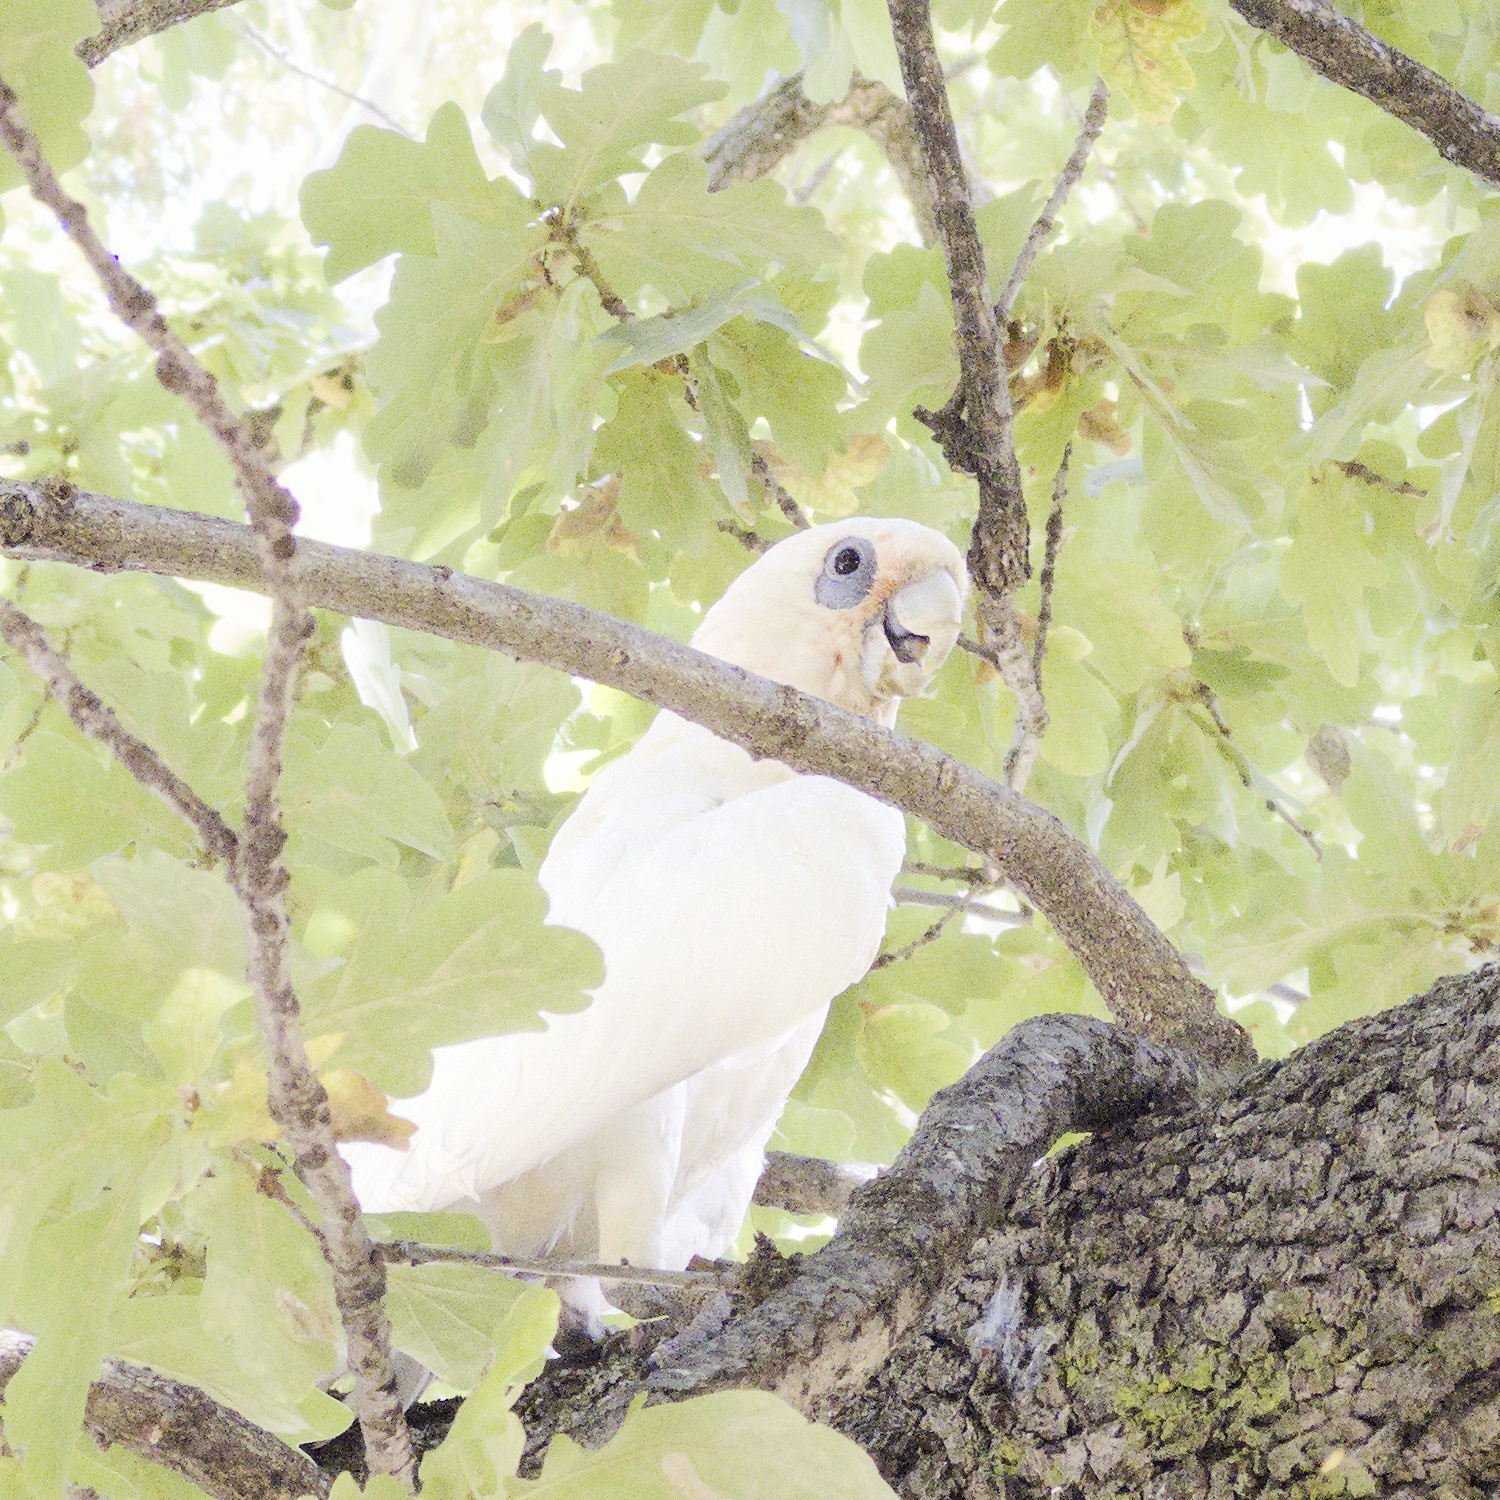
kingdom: Animalia
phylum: Chordata
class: Aves
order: Psittaciformes
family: Psittacidae
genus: Cacatua
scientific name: Cacatua sanguinea
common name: Little corella
